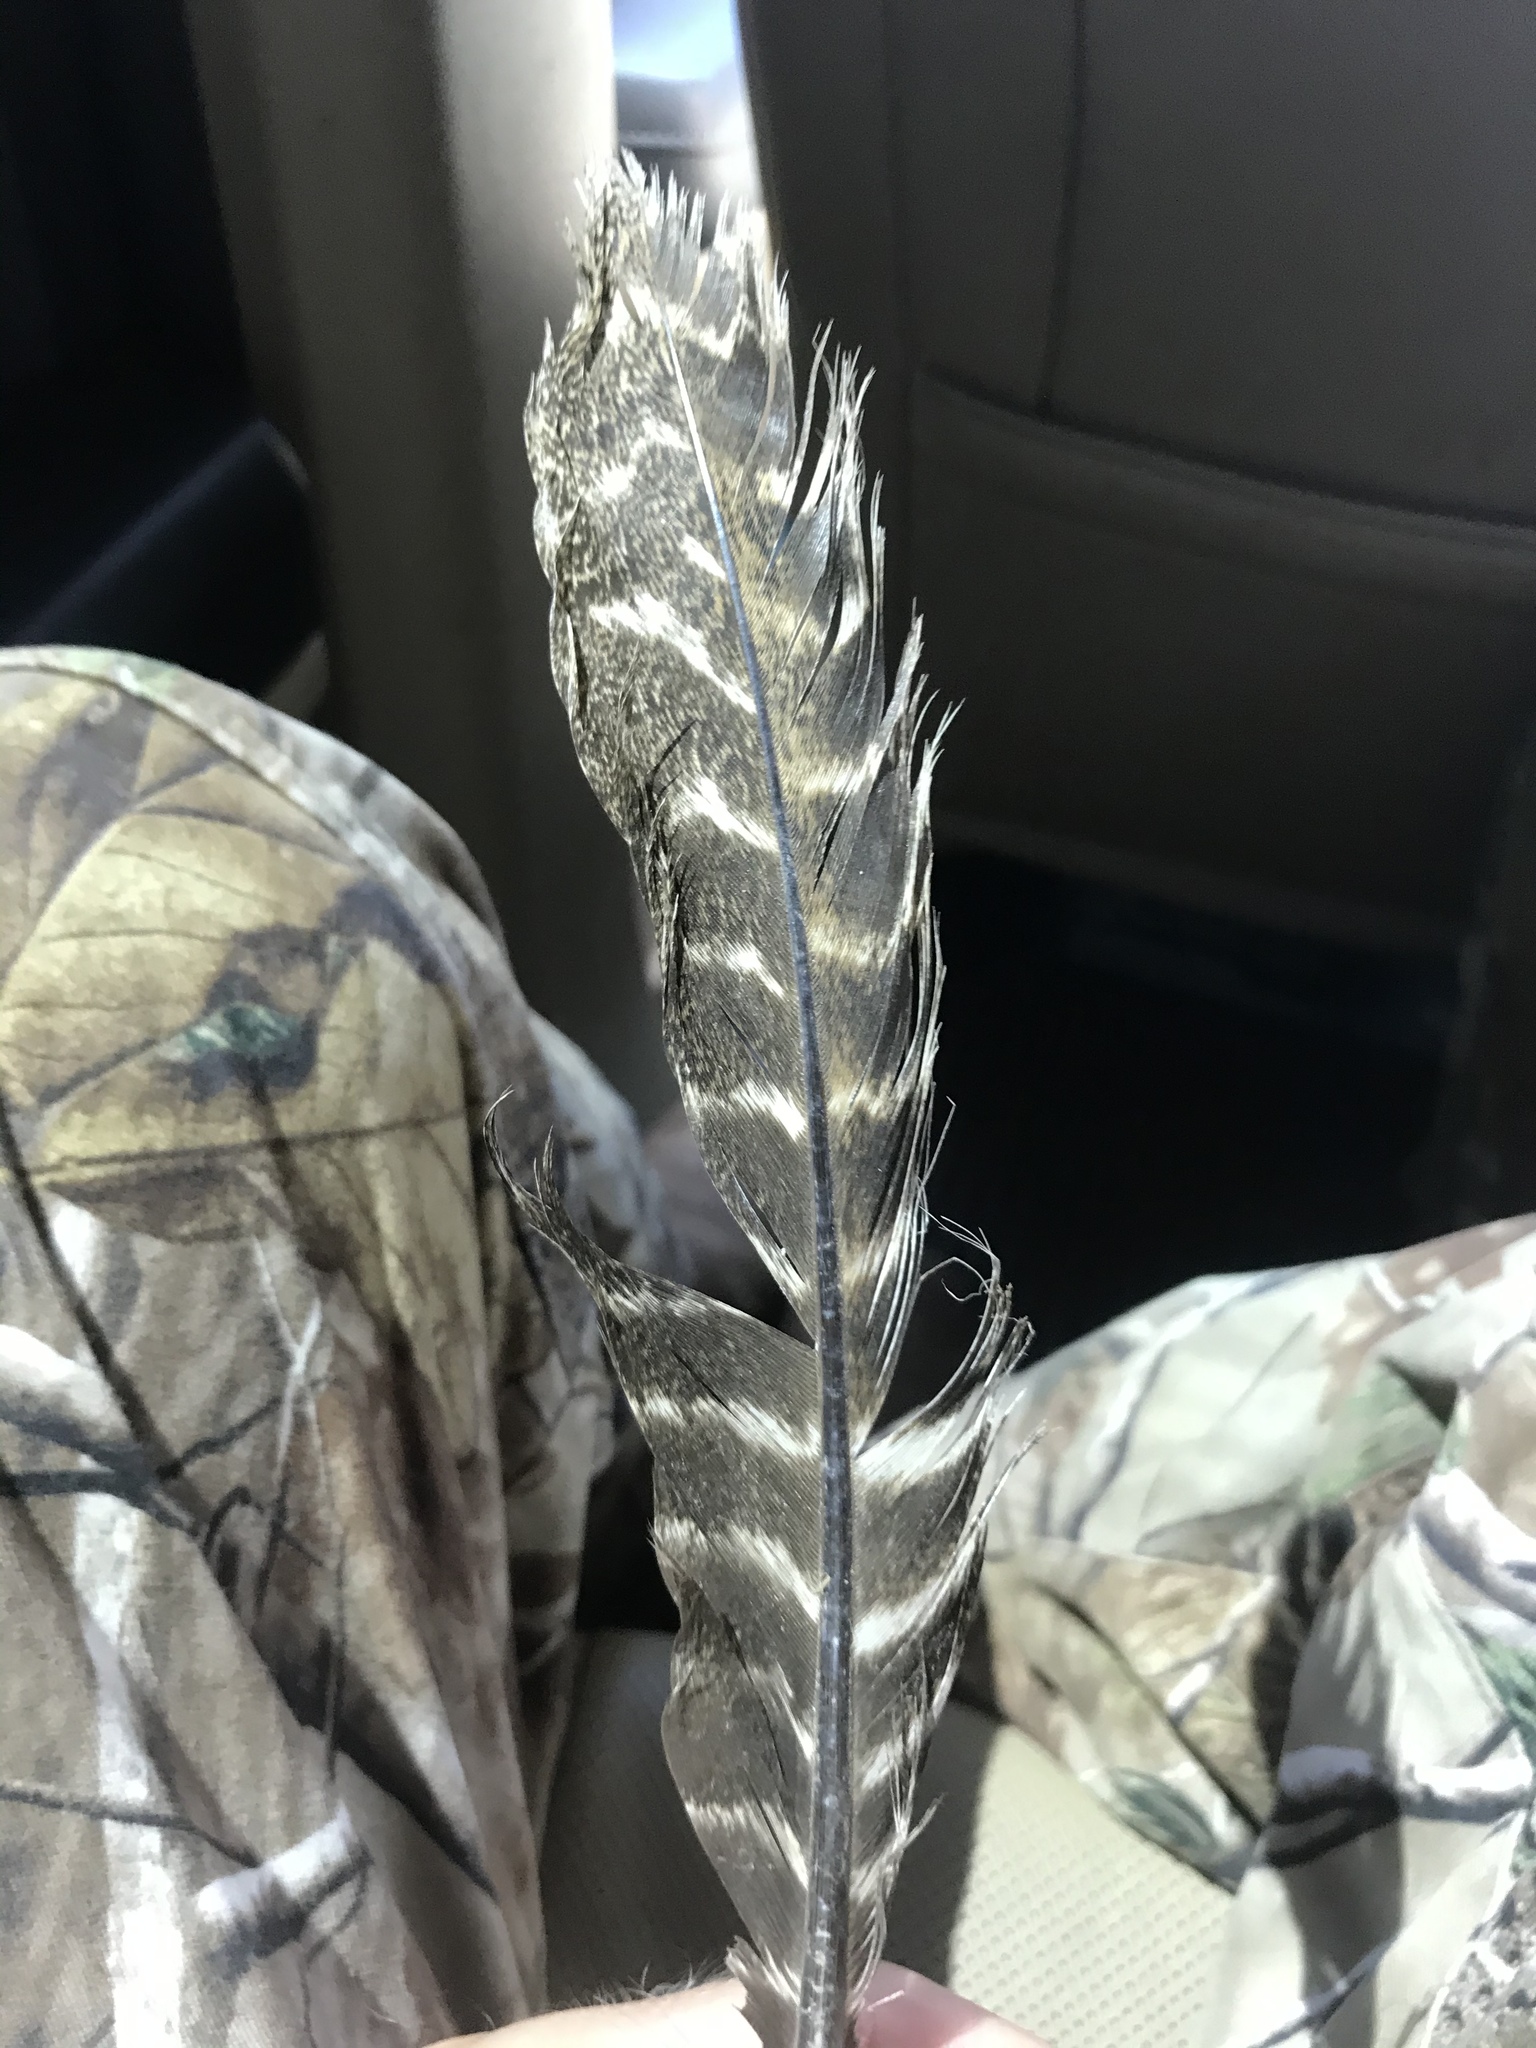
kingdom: Animalia
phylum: Chordata
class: Aves
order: Galliformes
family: Phasianidae
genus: Meleagris
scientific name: Meleagris gallopavo
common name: Wild turkey
